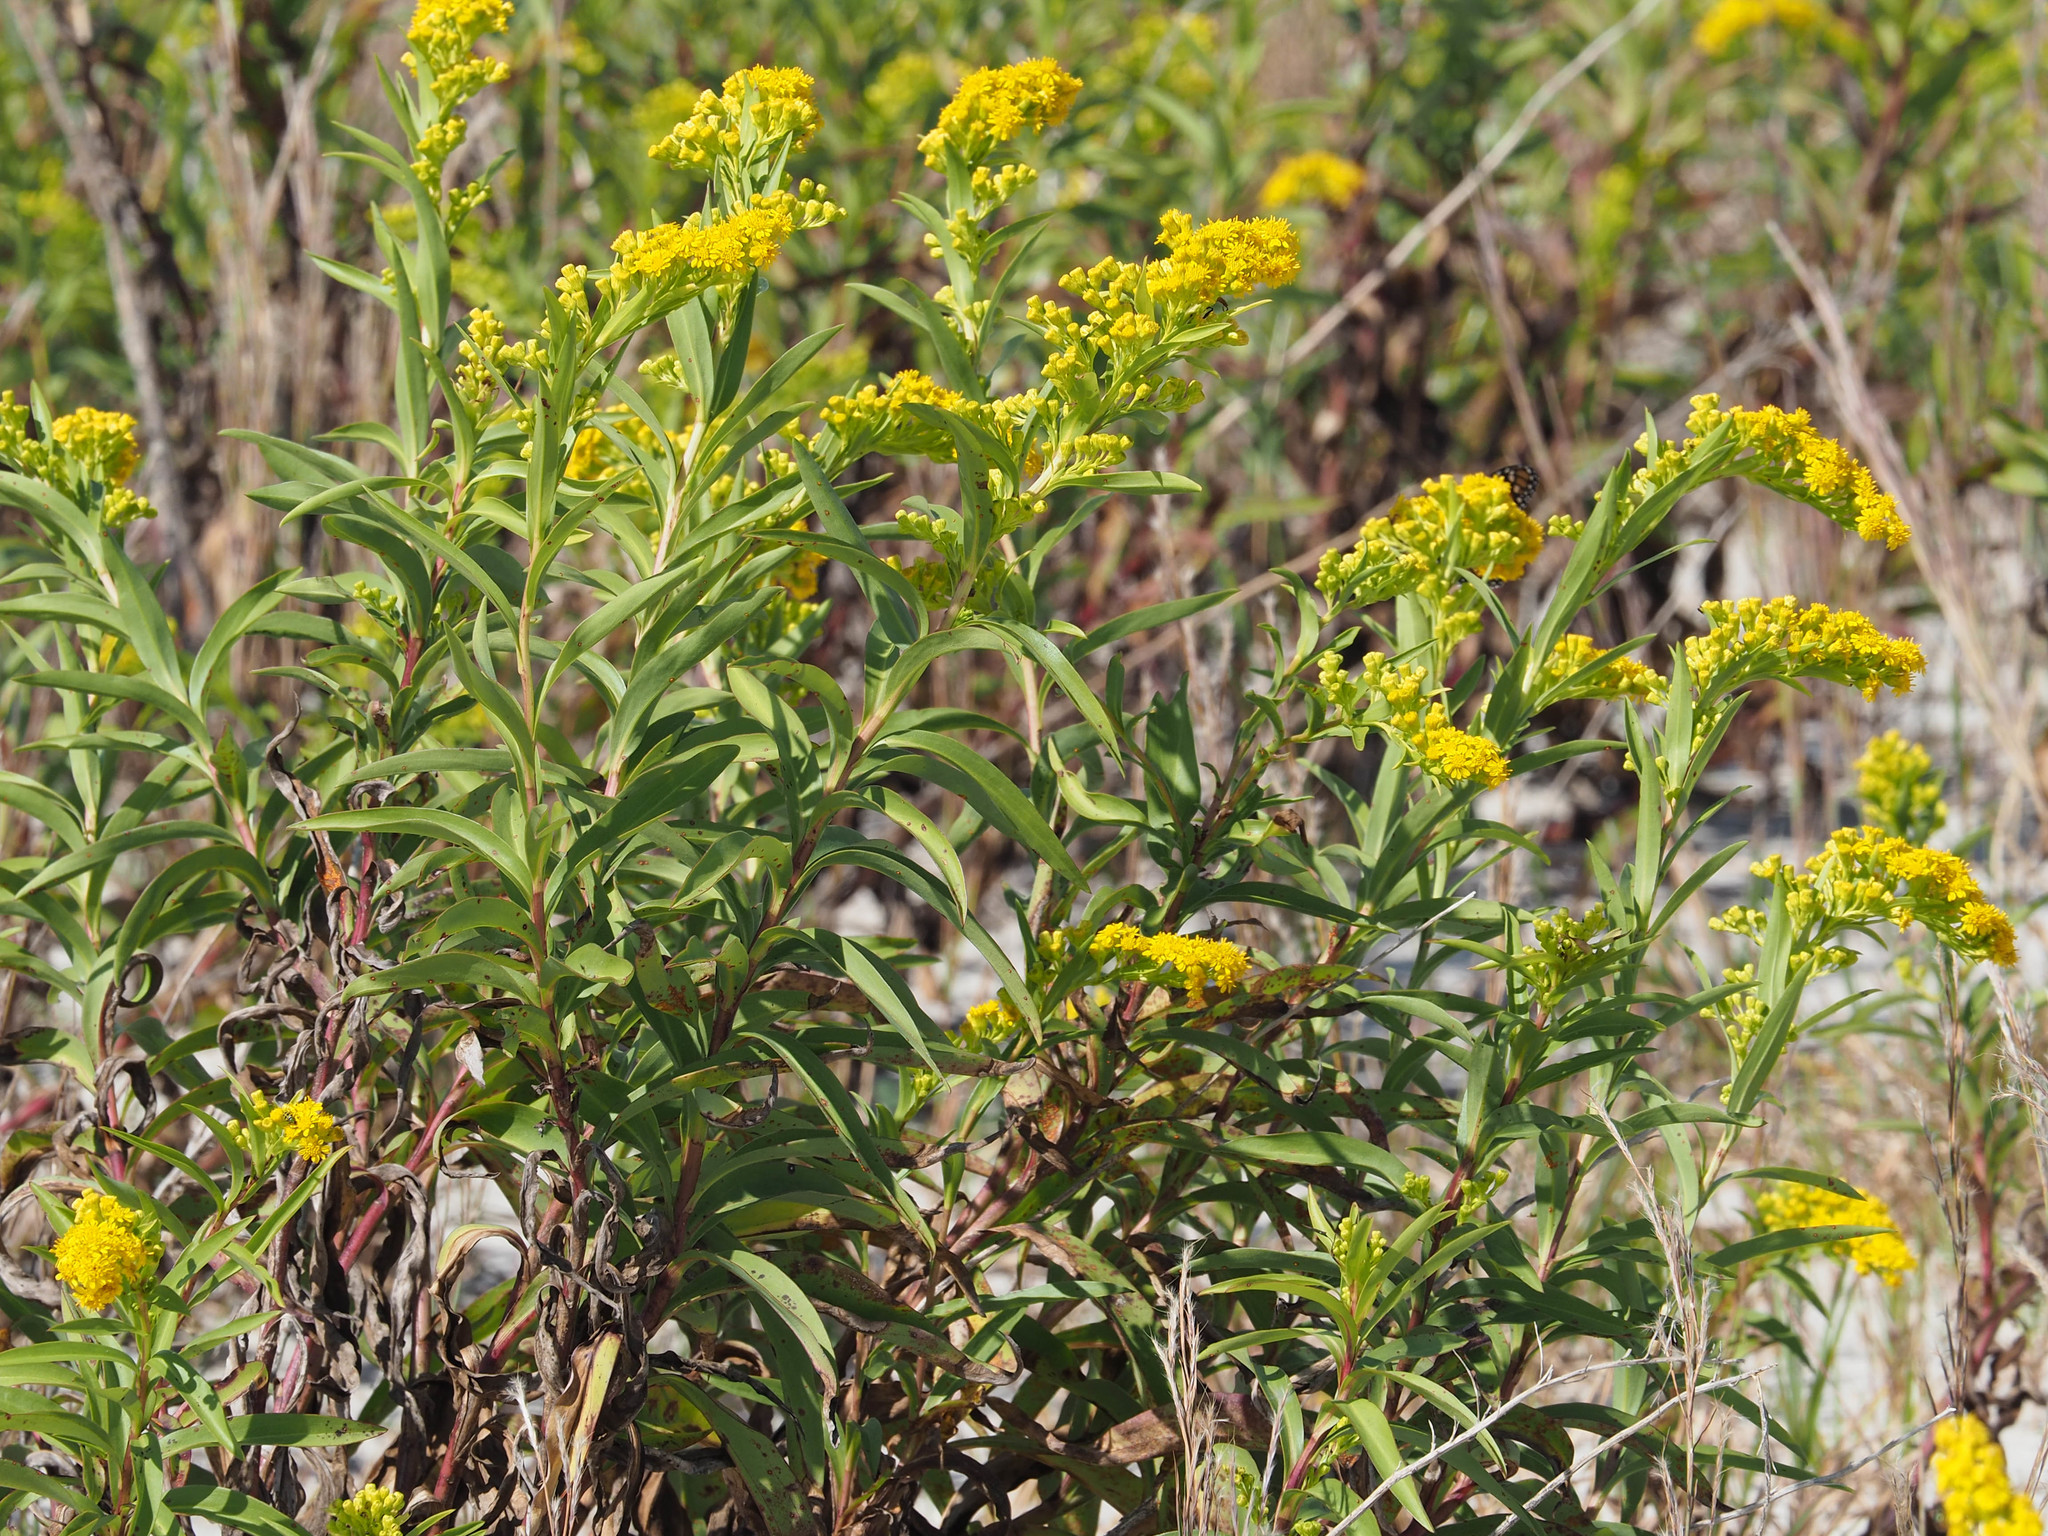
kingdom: Plantae
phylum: Tracheophyta
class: Magnoliopsida
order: Asterales
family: Asteraceae
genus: Solidago
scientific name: Solidago sempervirens
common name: Salt-marsh goldenrod
